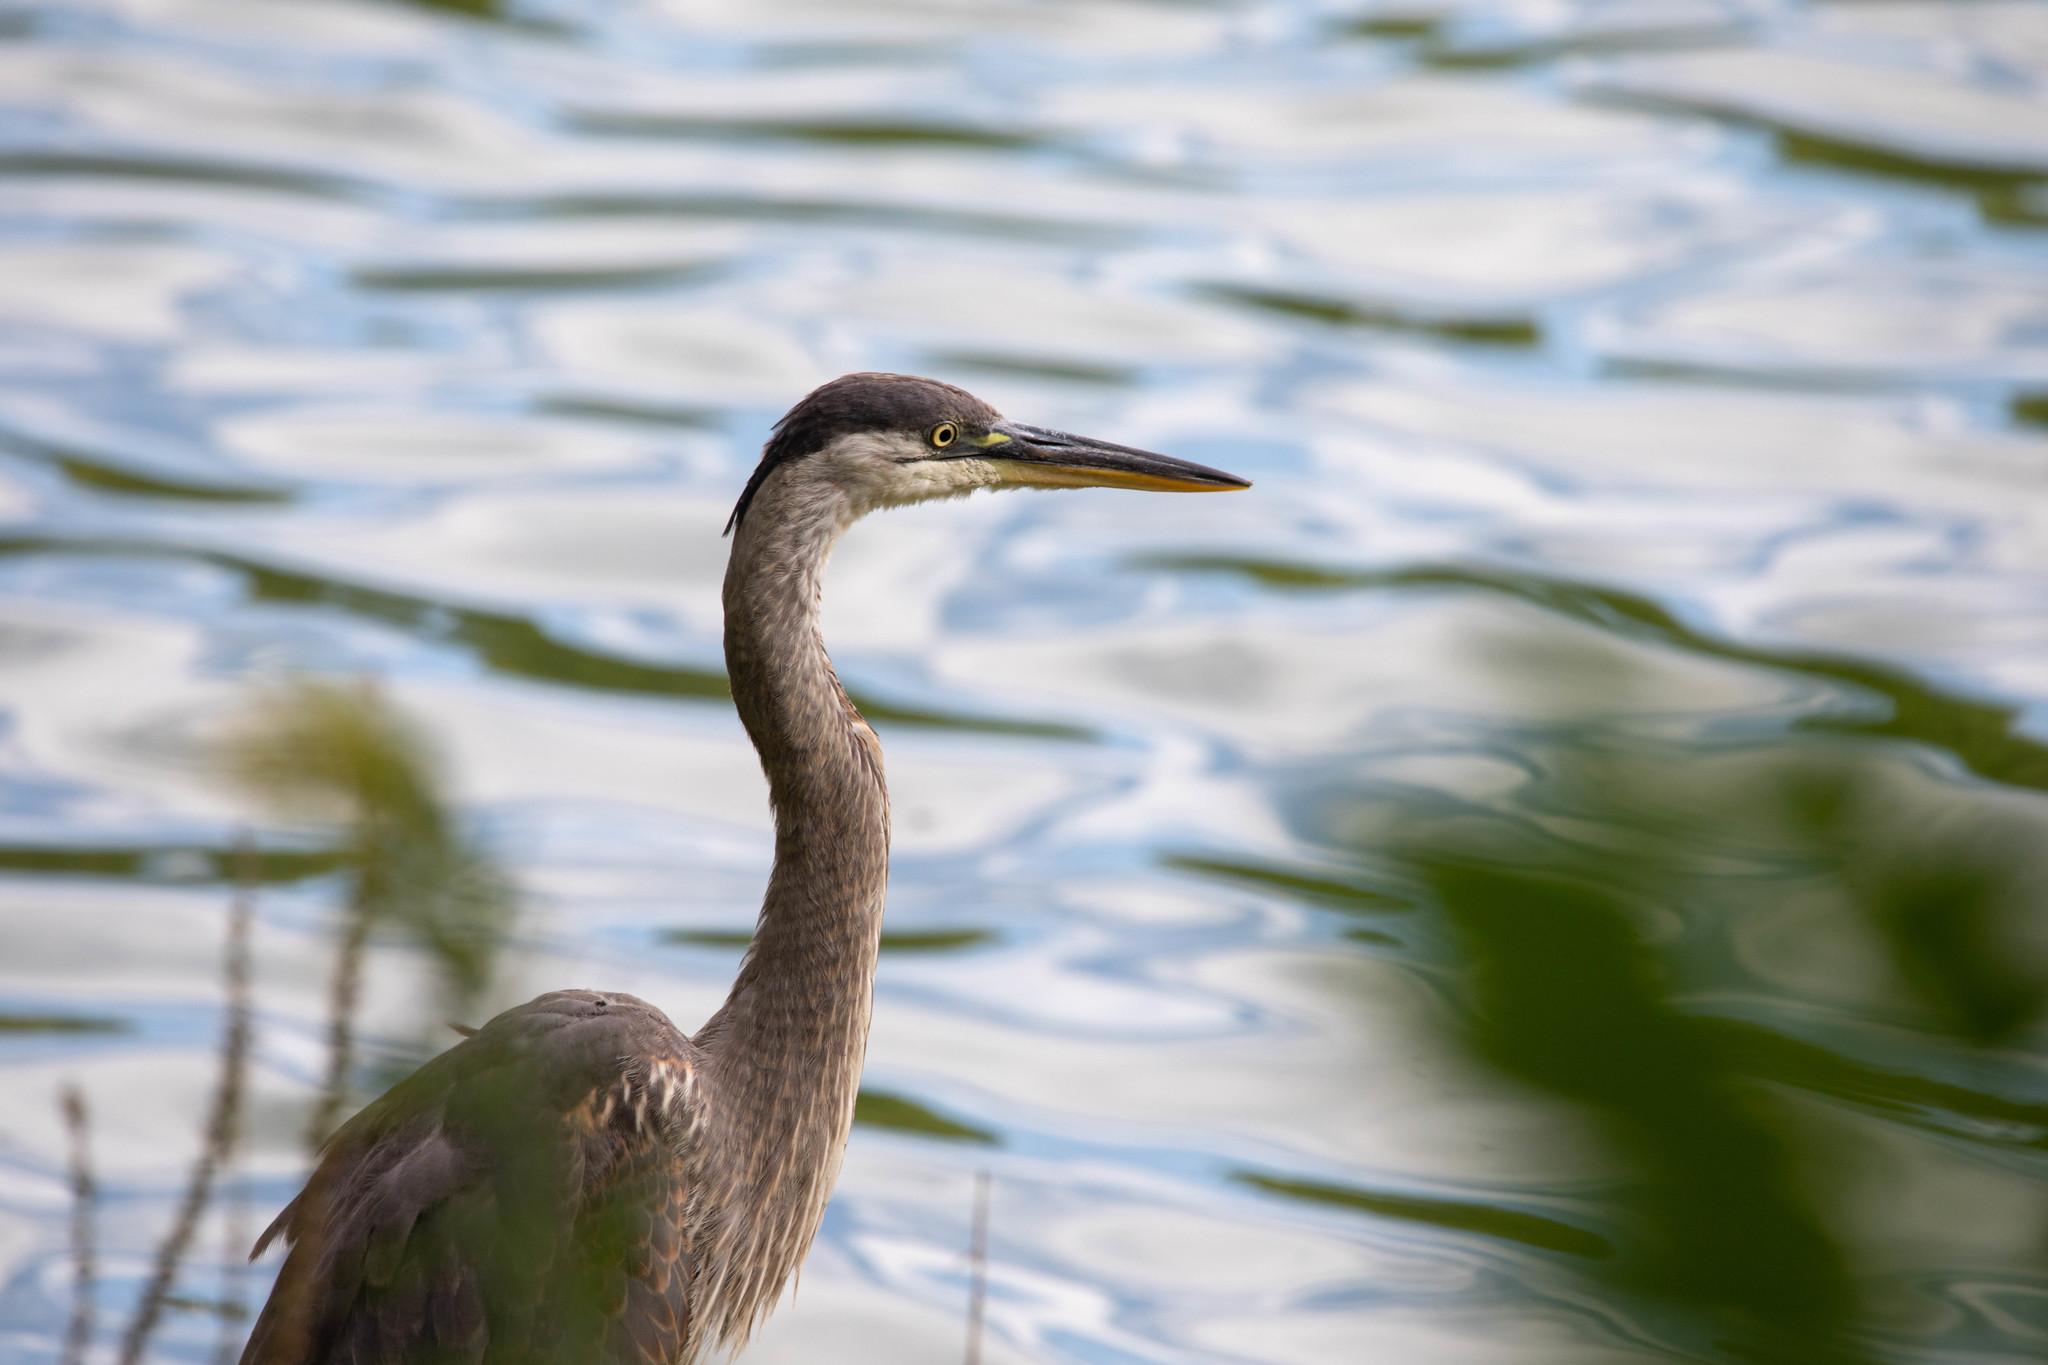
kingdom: Animalia
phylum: Chordata
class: Aves
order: Pelecaniformes
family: Ardeidae
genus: Ardea
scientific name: Ardea herodias
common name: Great blue heron
